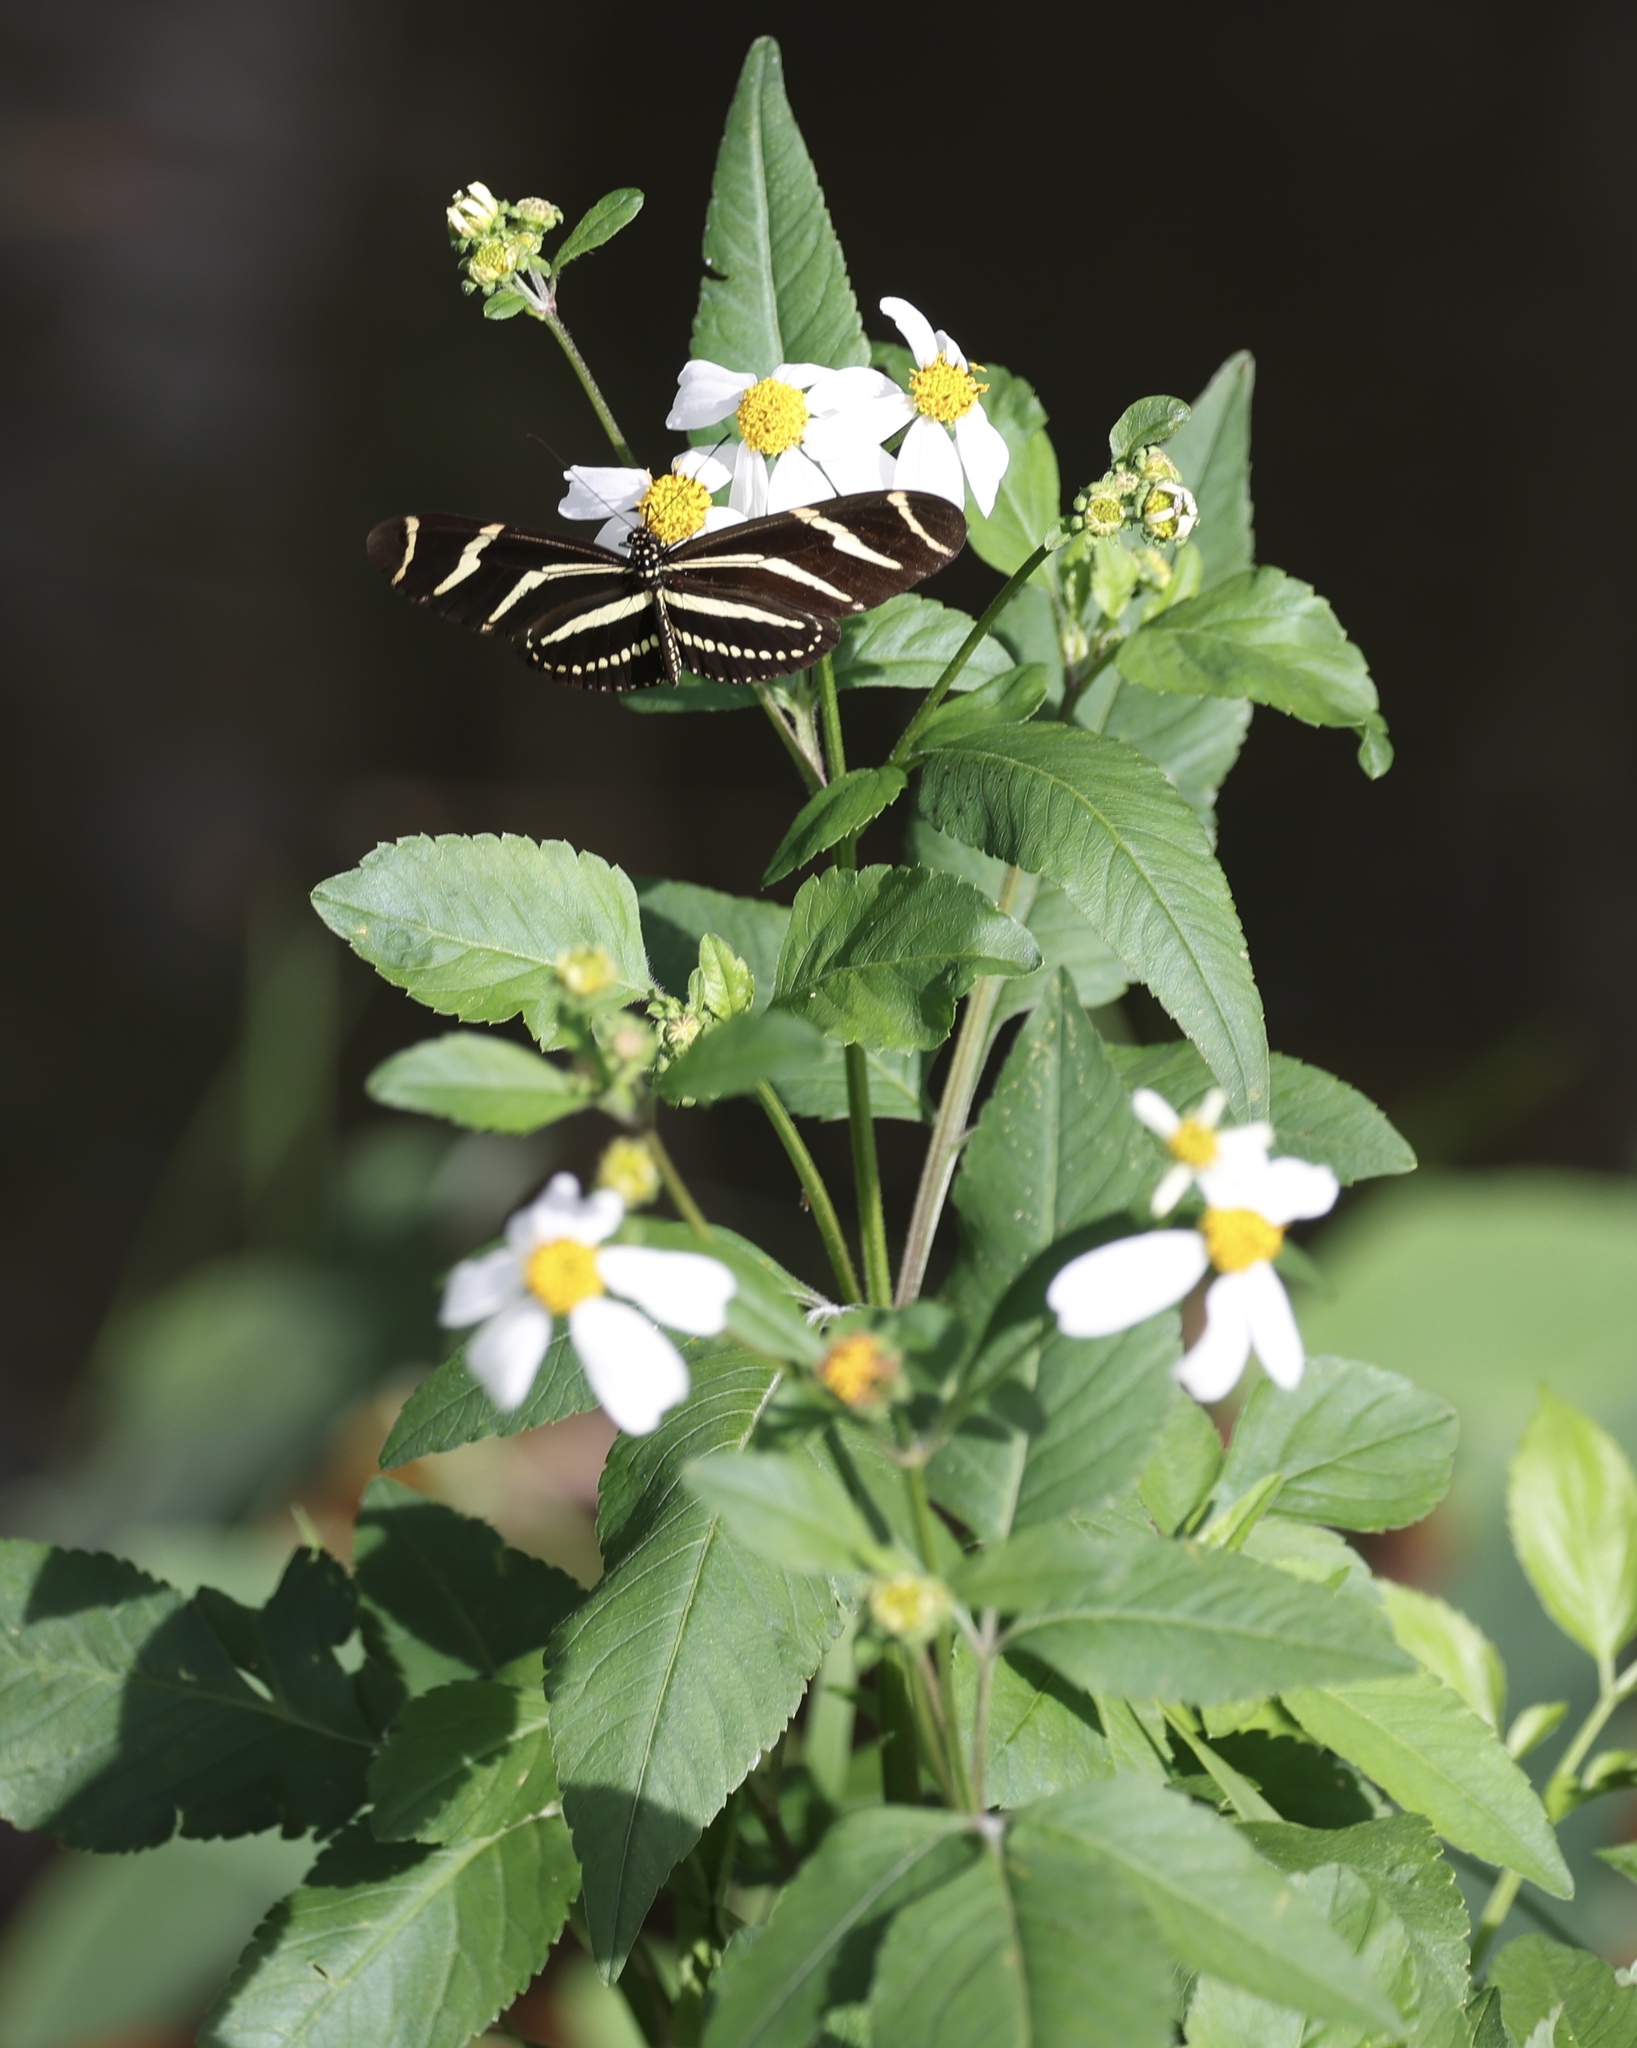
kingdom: Plantae
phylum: Tracheophyta
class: Magnoliopsida
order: Asterales
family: Asteraceae
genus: Bidens
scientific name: Bidens alba
